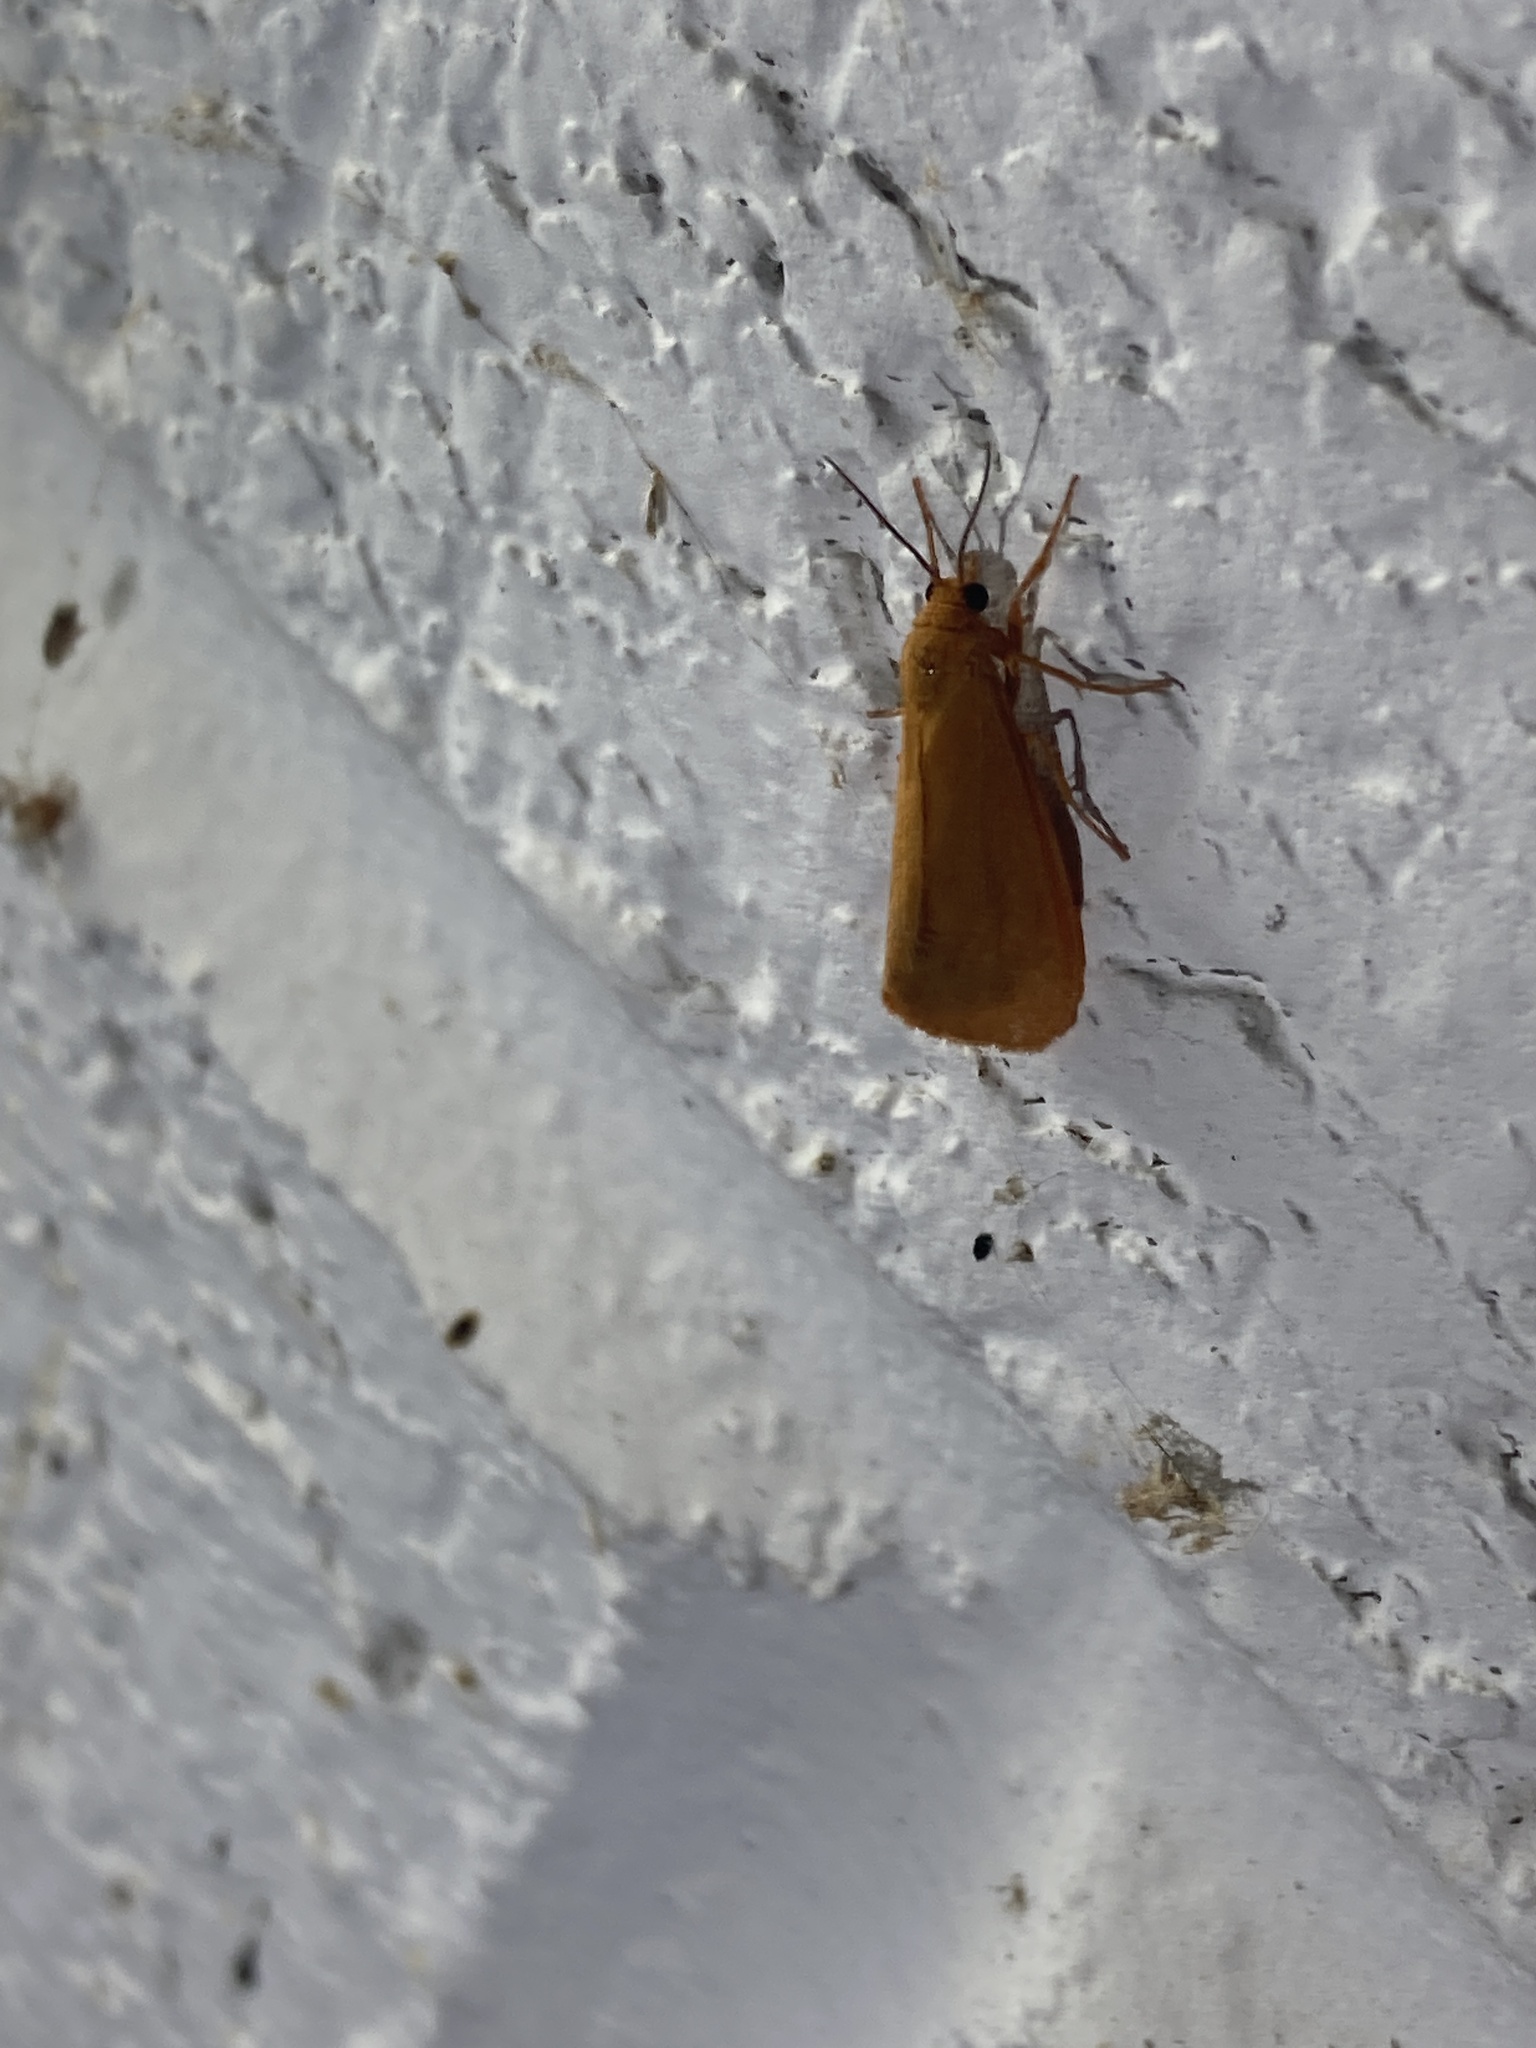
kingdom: Animalia
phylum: Arthropoda
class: Insecta
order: Lepidoptera
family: Erebidae
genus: Virbia
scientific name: Virbia aurantiaca
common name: Orange virbia moth
